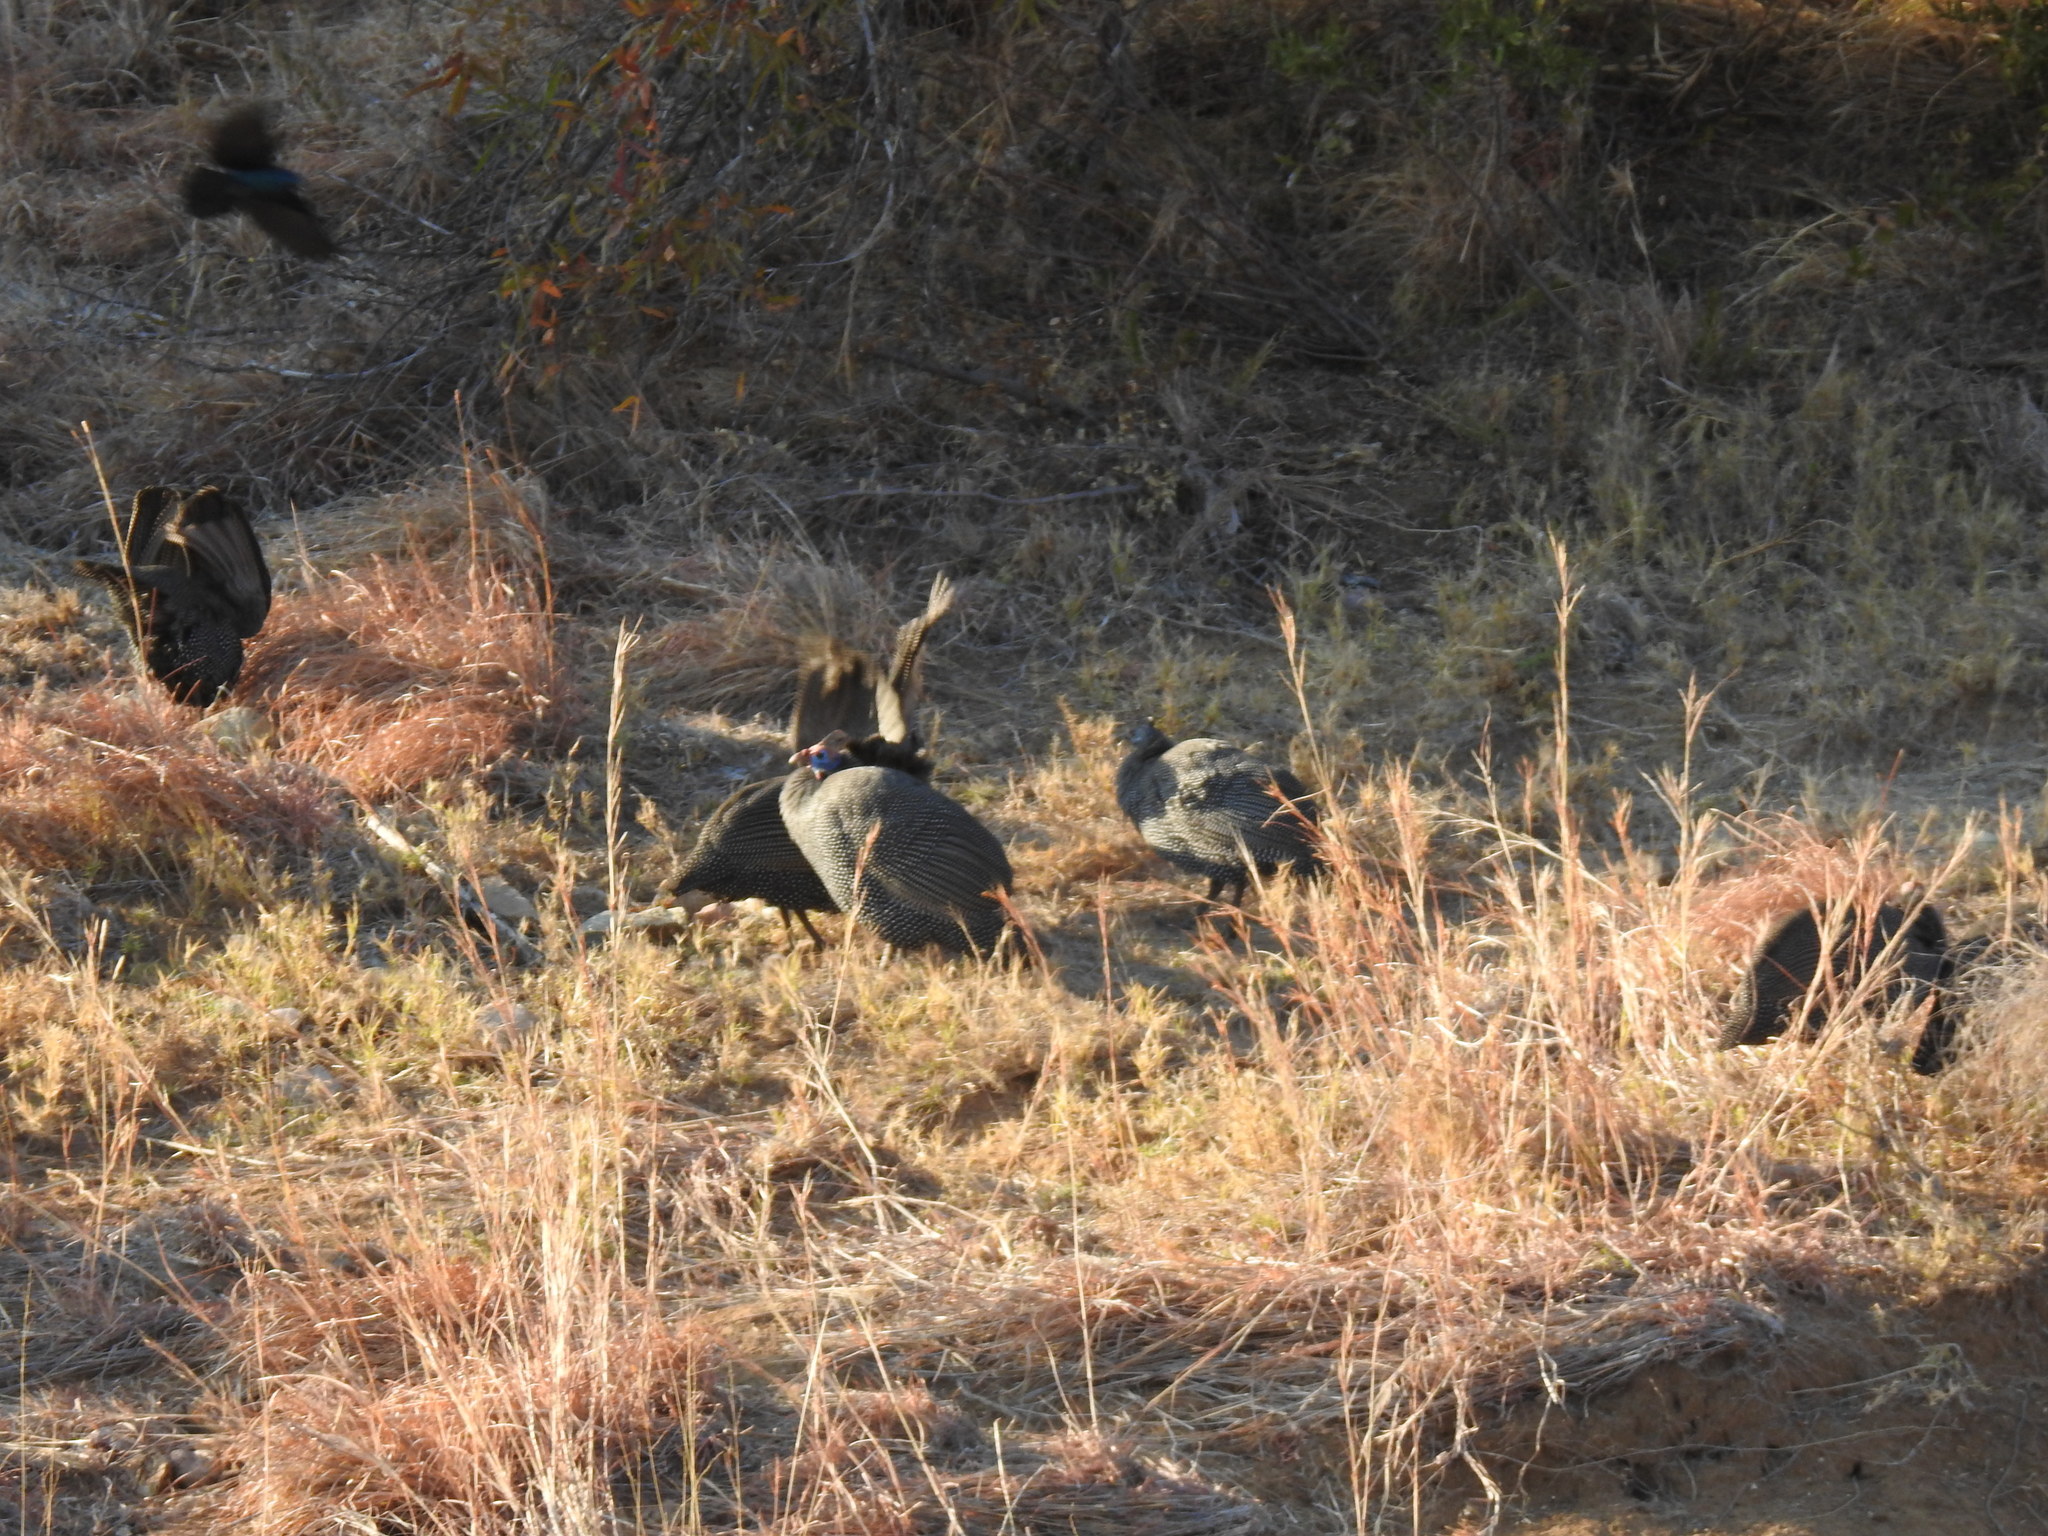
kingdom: Animalia
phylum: Chordata
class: Aves
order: Galliformes
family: Numididae
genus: Numida
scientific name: Numida meleagris
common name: Helmeted guineafowl
